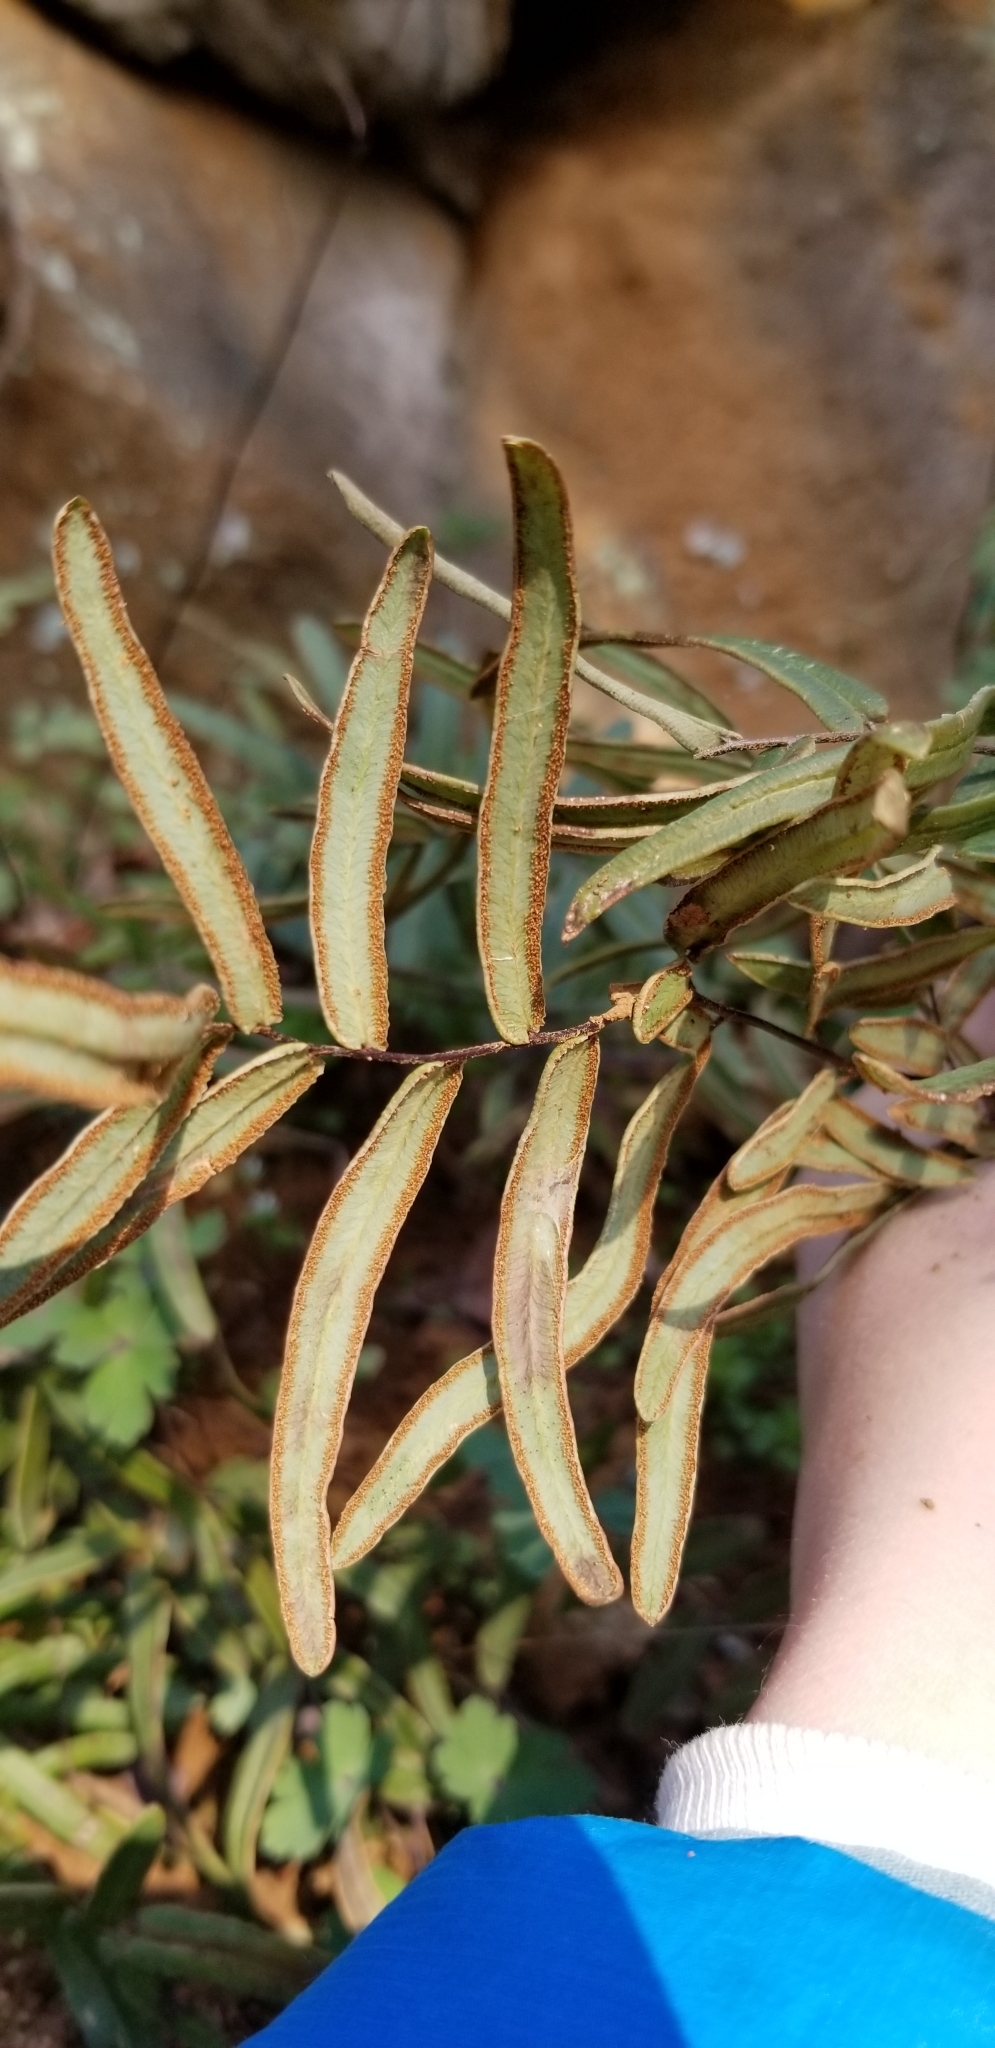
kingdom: Plantae
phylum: Tracheophyta
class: Polypodiopsida
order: Polypodiales
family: Pteridaceae
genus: Pellaea
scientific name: Pellaea atropurpurea
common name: Hairy cliffbrake
